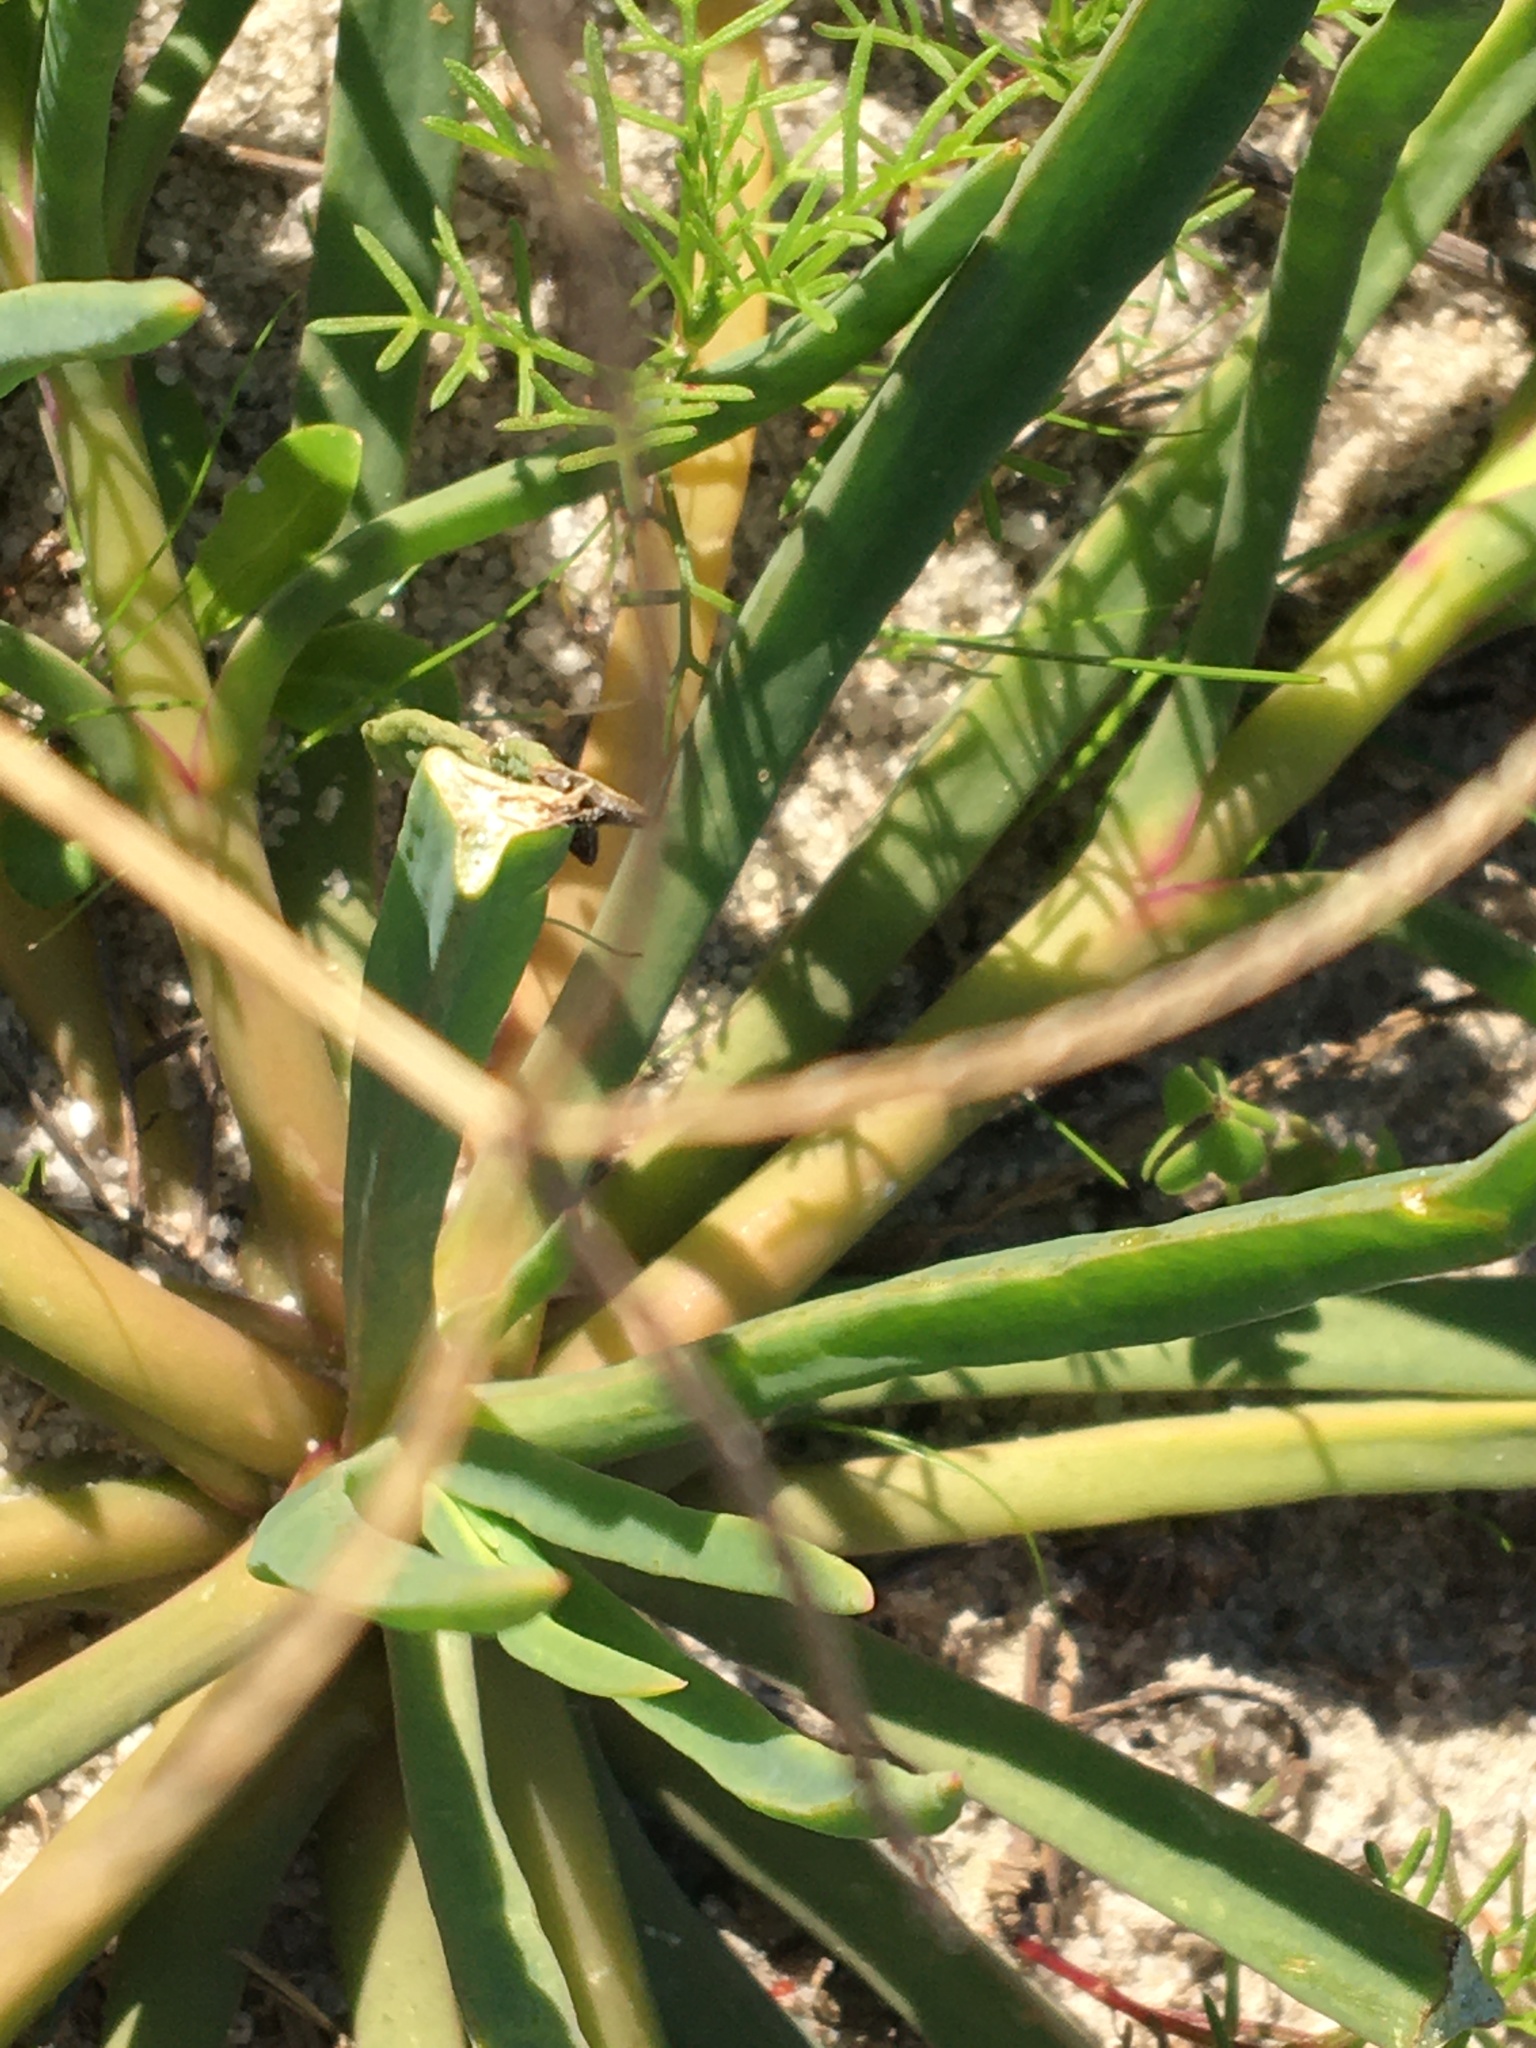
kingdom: Plantae
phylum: Tracheophyta
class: Magnoliopsida
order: Caryophyllales
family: Aizoaceae
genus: Conicosia
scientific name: Conicosia pugioniformis
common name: Narrow-leaved iceplant
